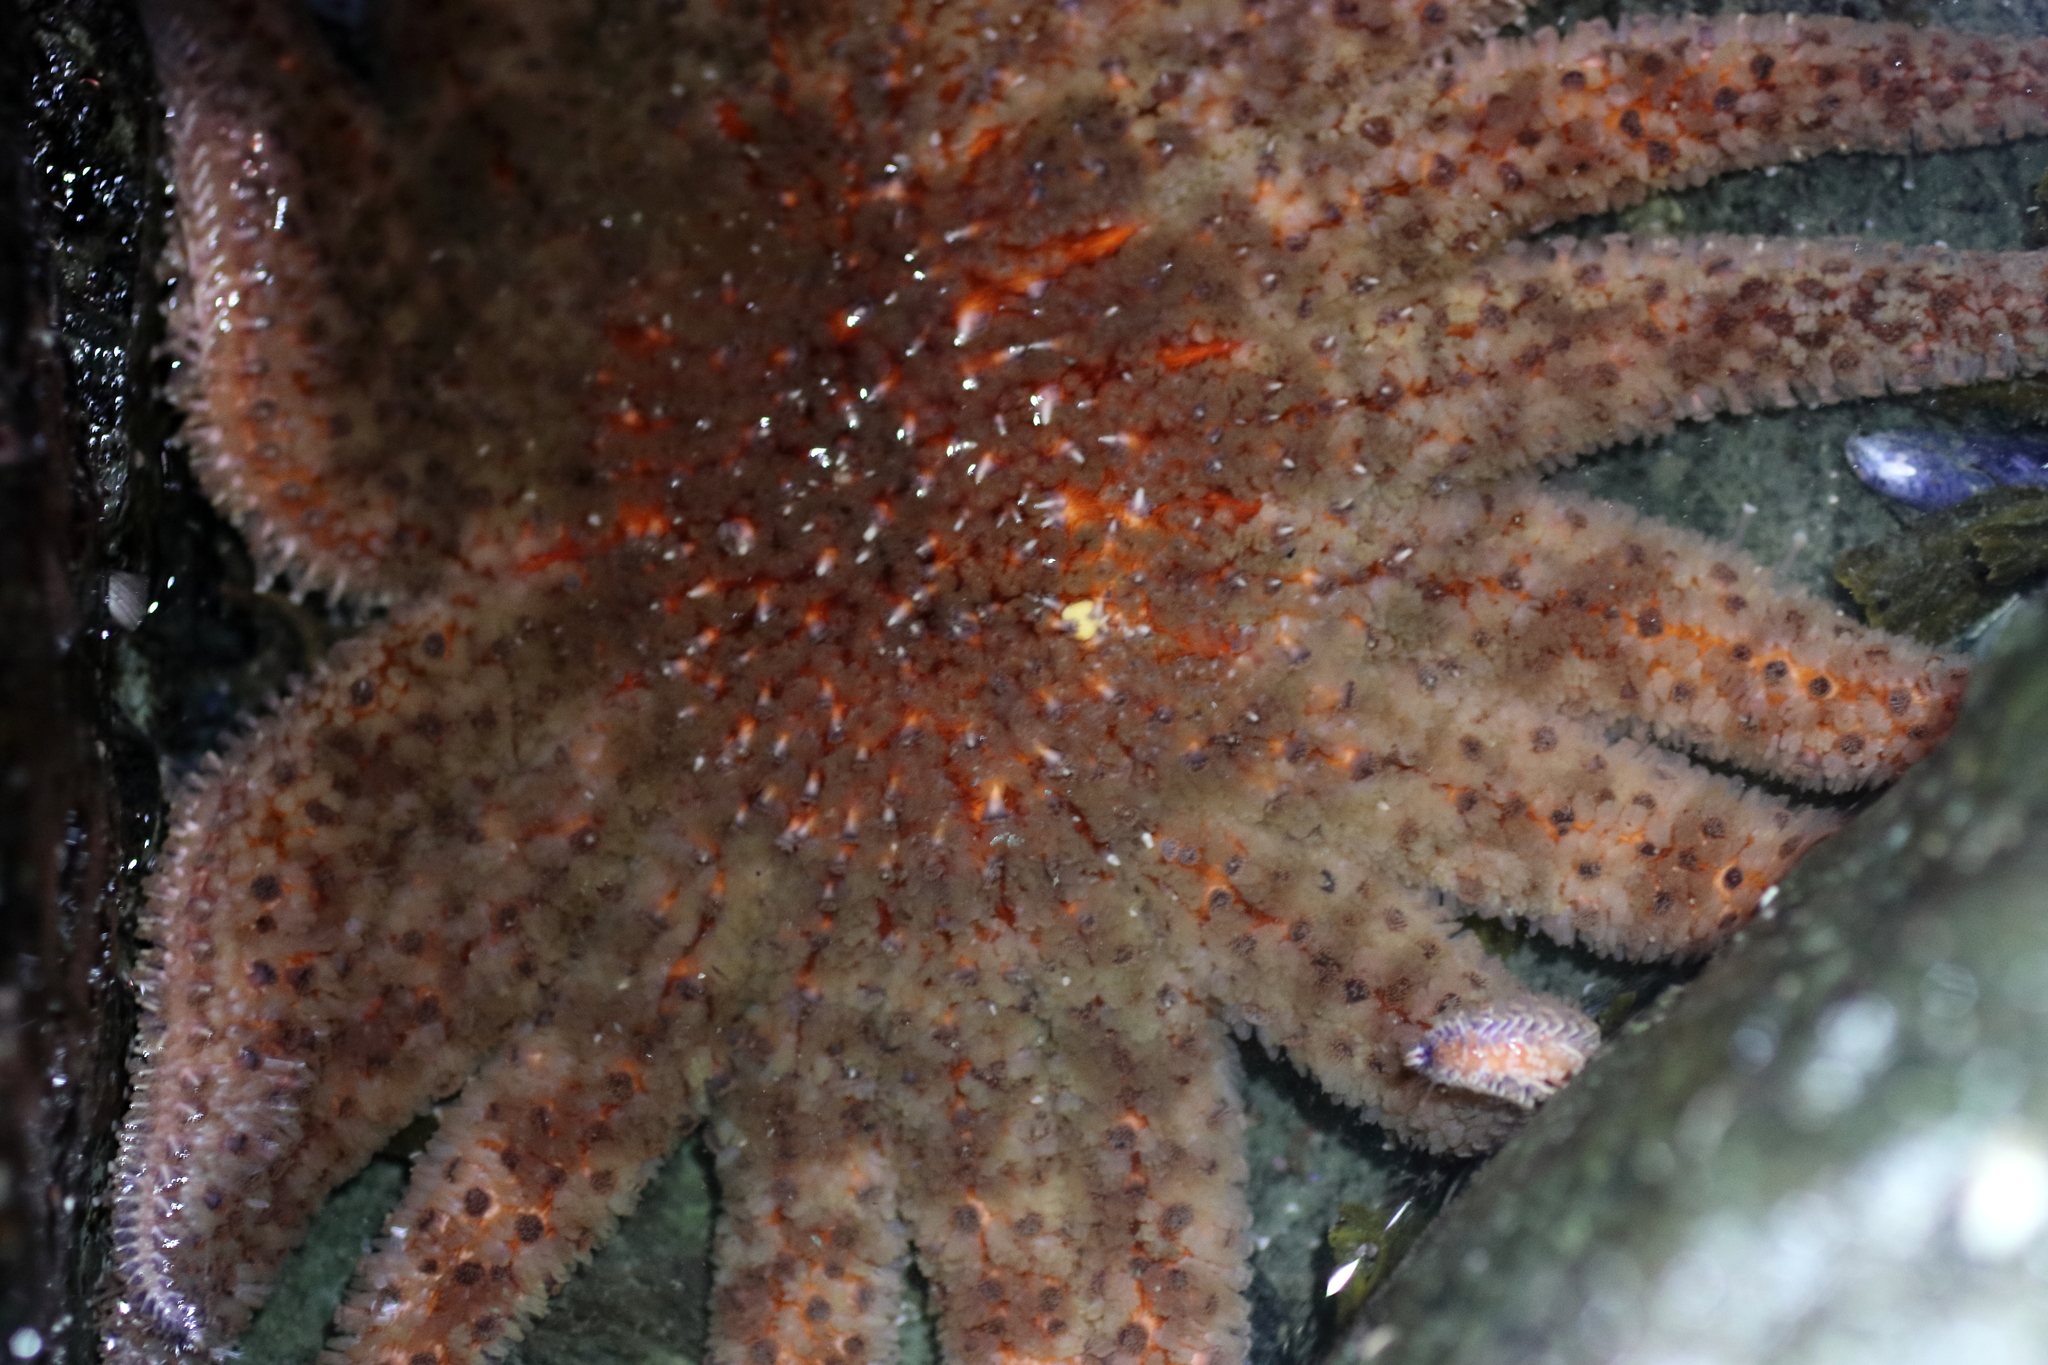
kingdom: Animalia
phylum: Echinodermata
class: Asteroidea
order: Forcipulatida
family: Asteriidae
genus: Pycnopodia
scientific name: Pycnopodia helianthoides
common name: Rag mop
